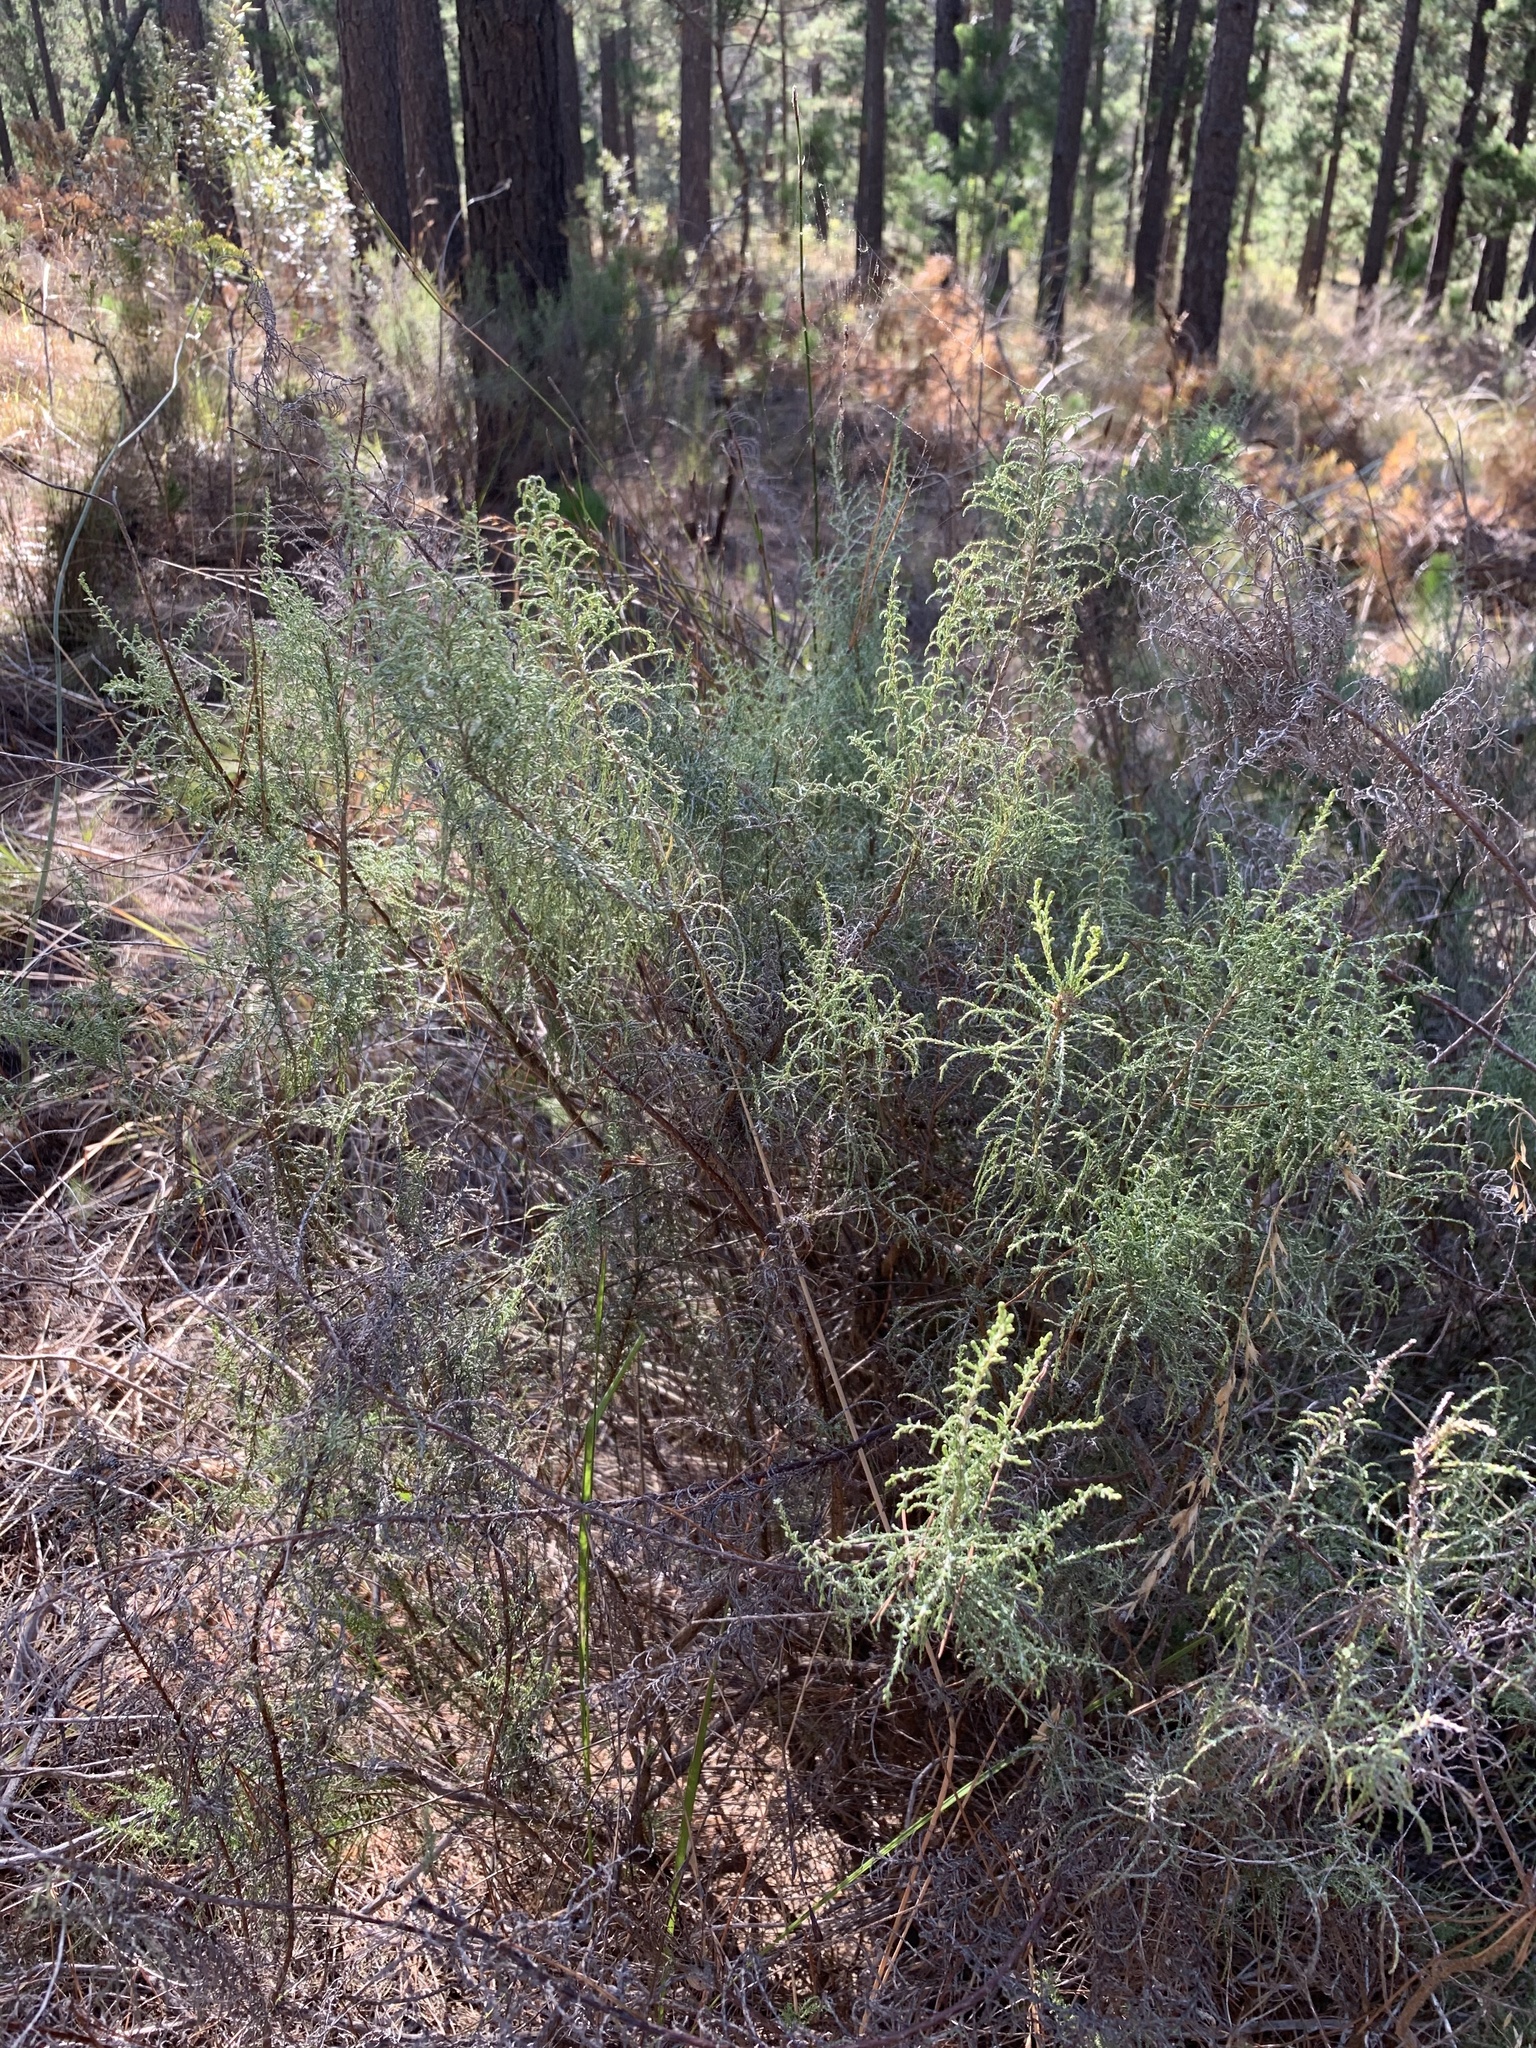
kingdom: Plantae
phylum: Tracheophyta
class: Magnoliopsida
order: Asterales
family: Asteraceae
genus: Dicerothamnus
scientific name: Dicerothamnus rhinocerotis
